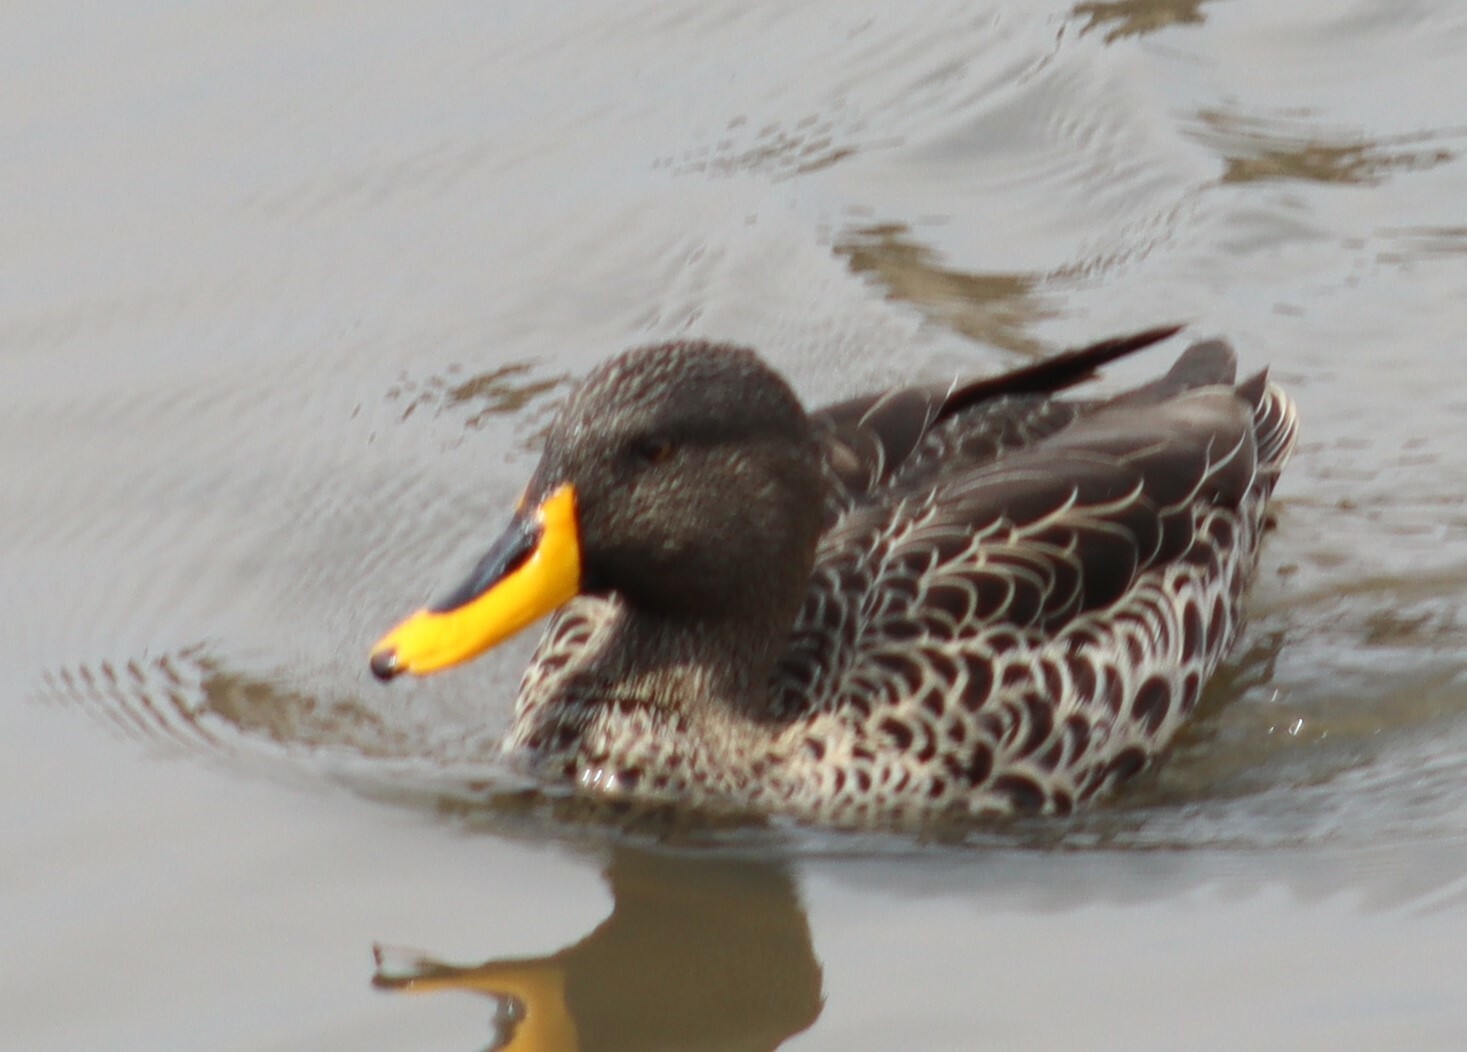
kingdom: Animalia
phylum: Chordata
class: Aves
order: Anseriformes
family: Anatidae
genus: Anas
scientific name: Anas undulata
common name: Yellow-billed duck
